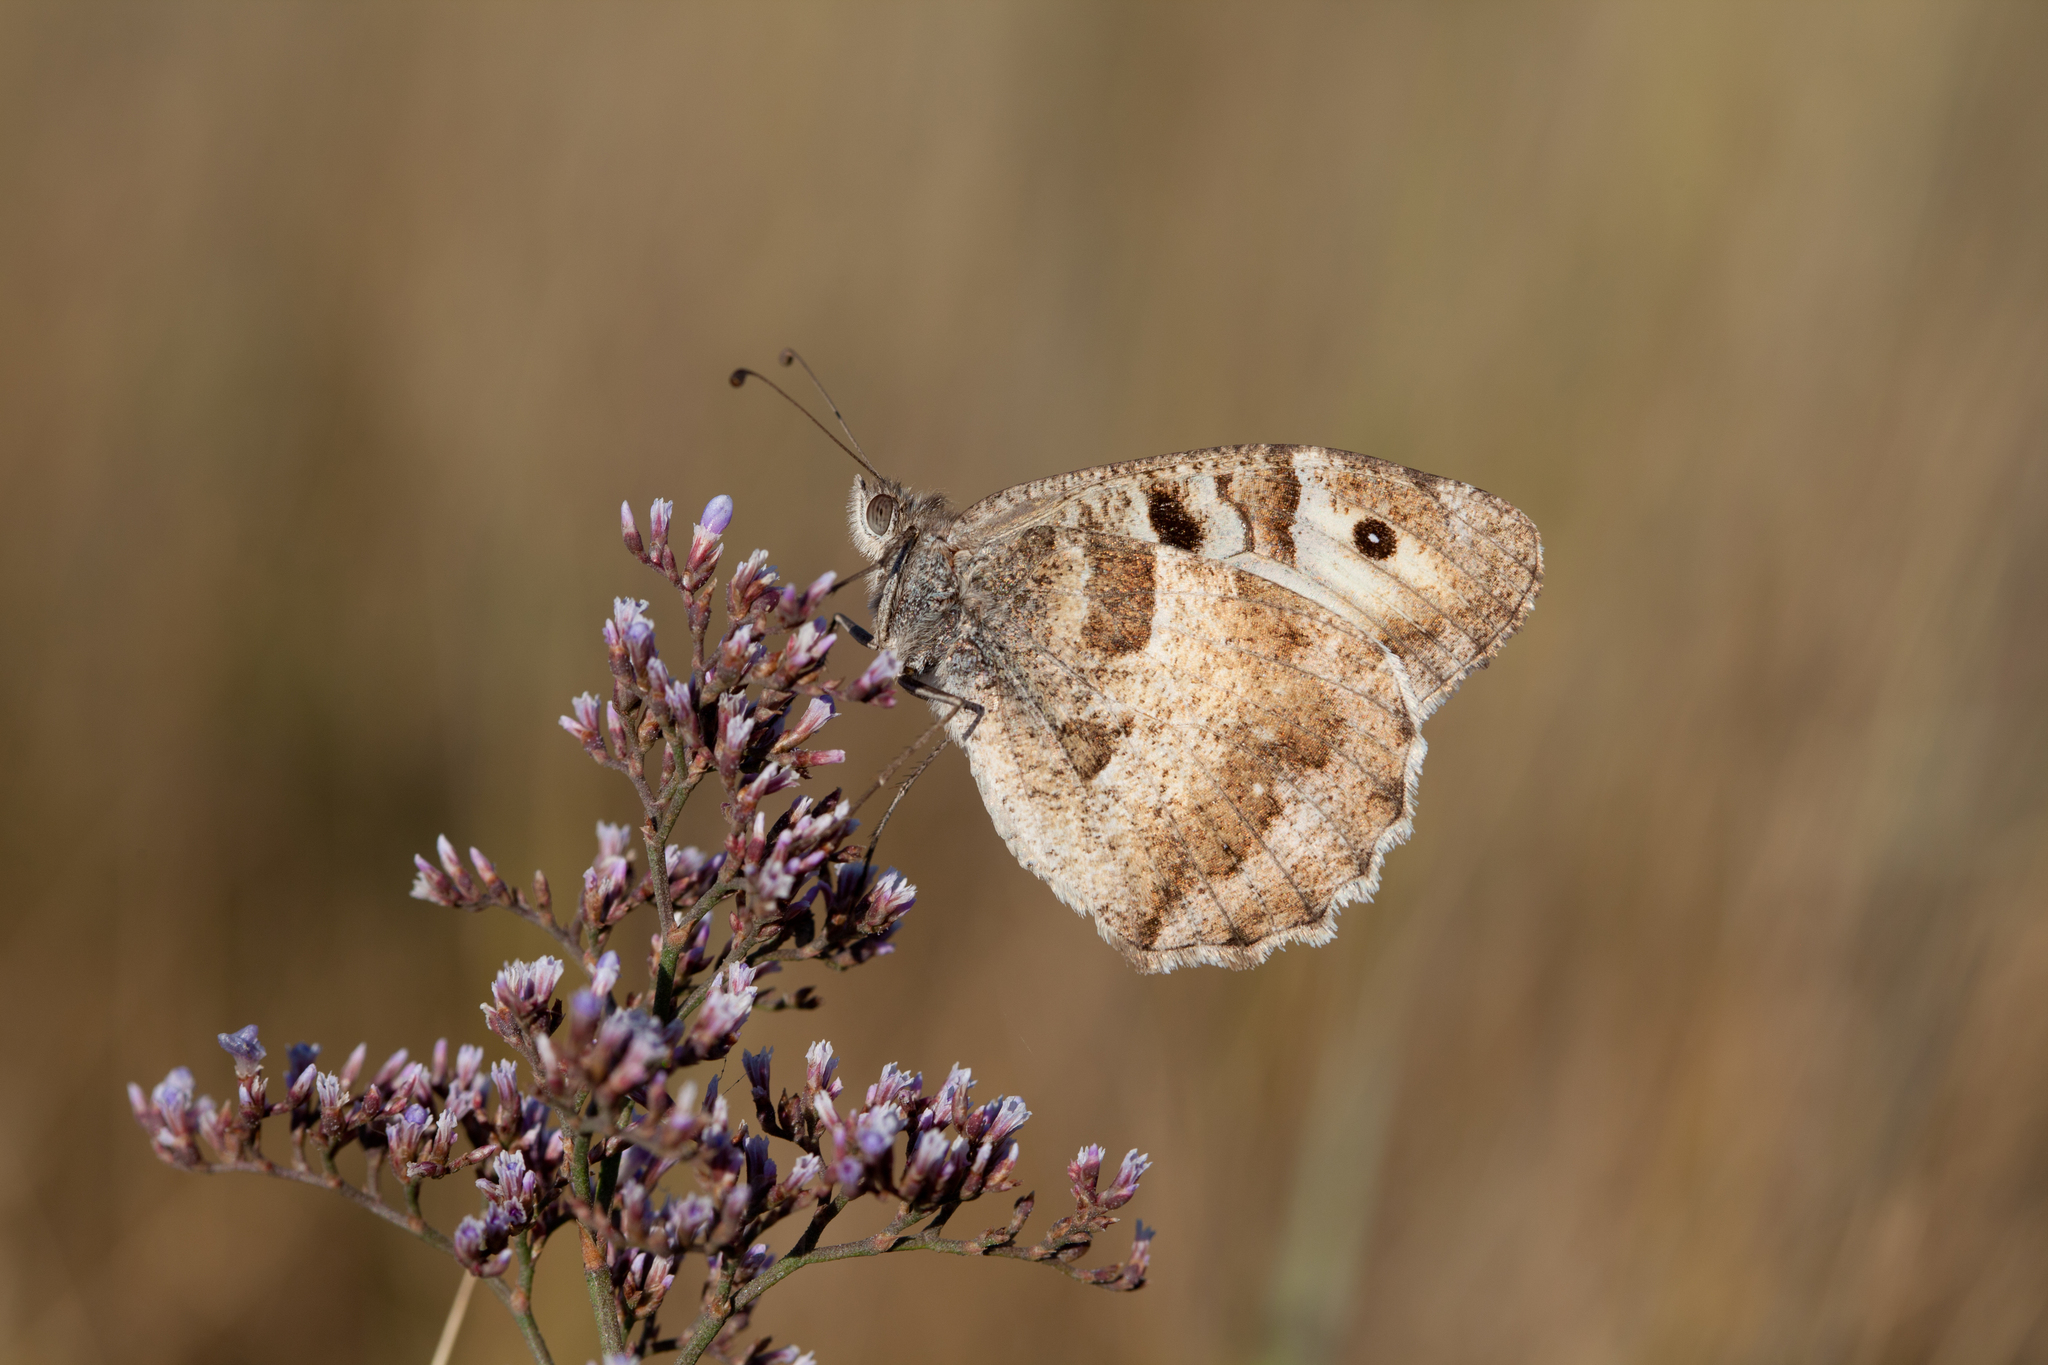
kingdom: Animalia
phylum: Arthropoda
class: Insecta
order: Lepidoptera
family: Nymphalidae
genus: Satyrus
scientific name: Satyrus briseis
